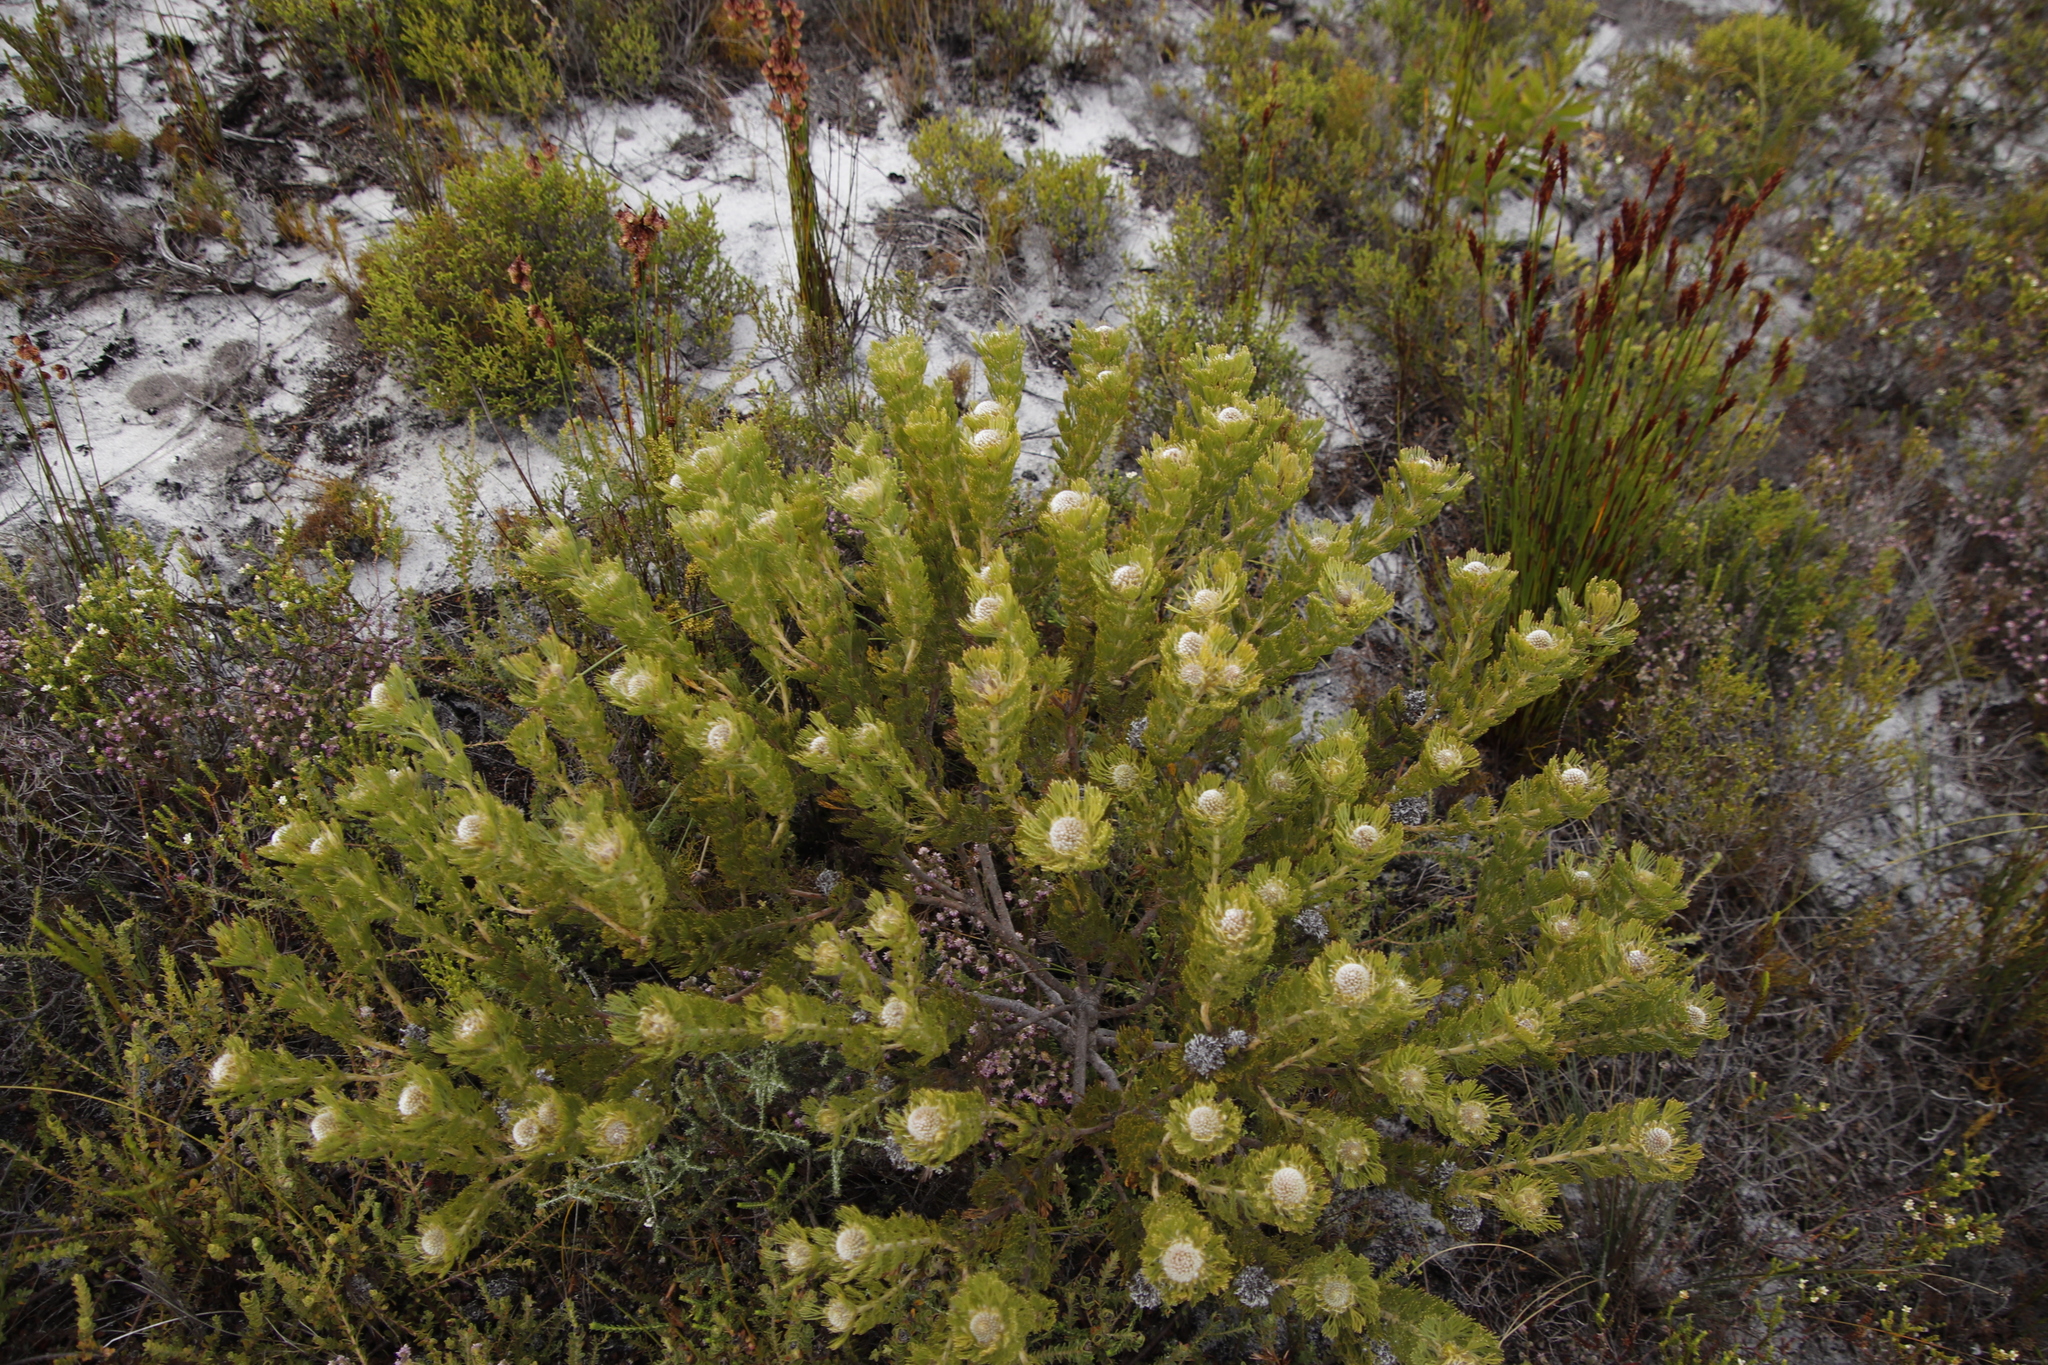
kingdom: Plantae
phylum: Tracheophyta
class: Magnoliopsida
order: Proteales
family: Proteaceae
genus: Serruria
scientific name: Serruria villosa
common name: Golden spiderhead
